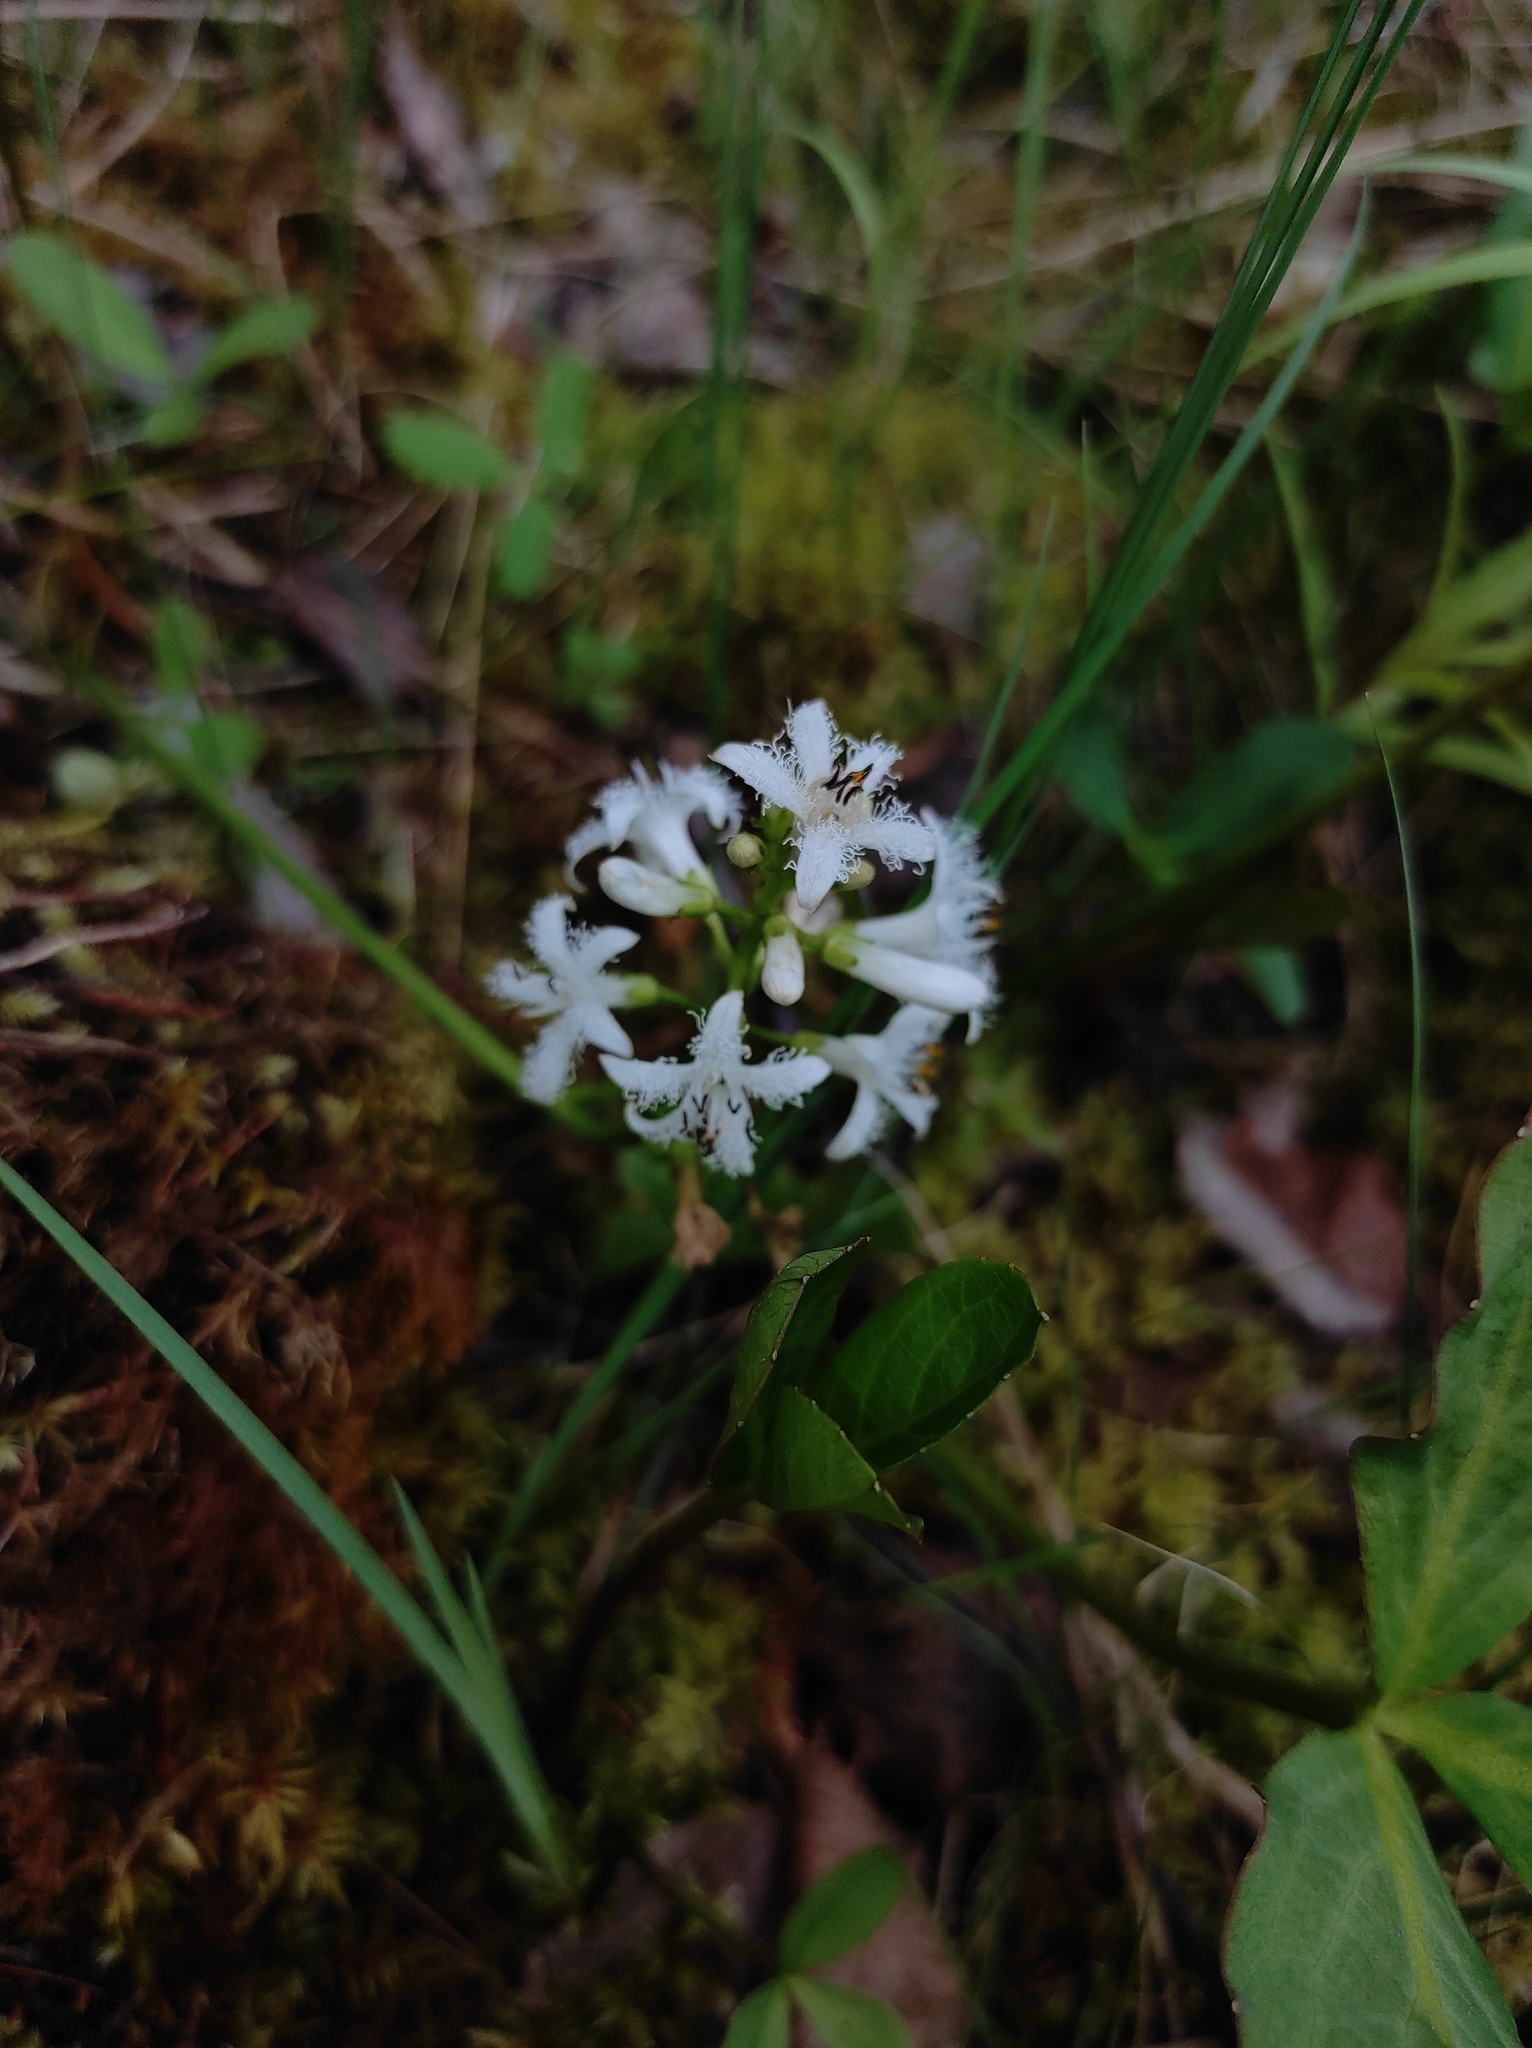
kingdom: Plantae
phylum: Tracheophyta
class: Magnoliopsida
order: Asterales
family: Menyanthaceae
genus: Menyanthes
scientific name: Menyanthes trifoliata
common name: Bogbean
